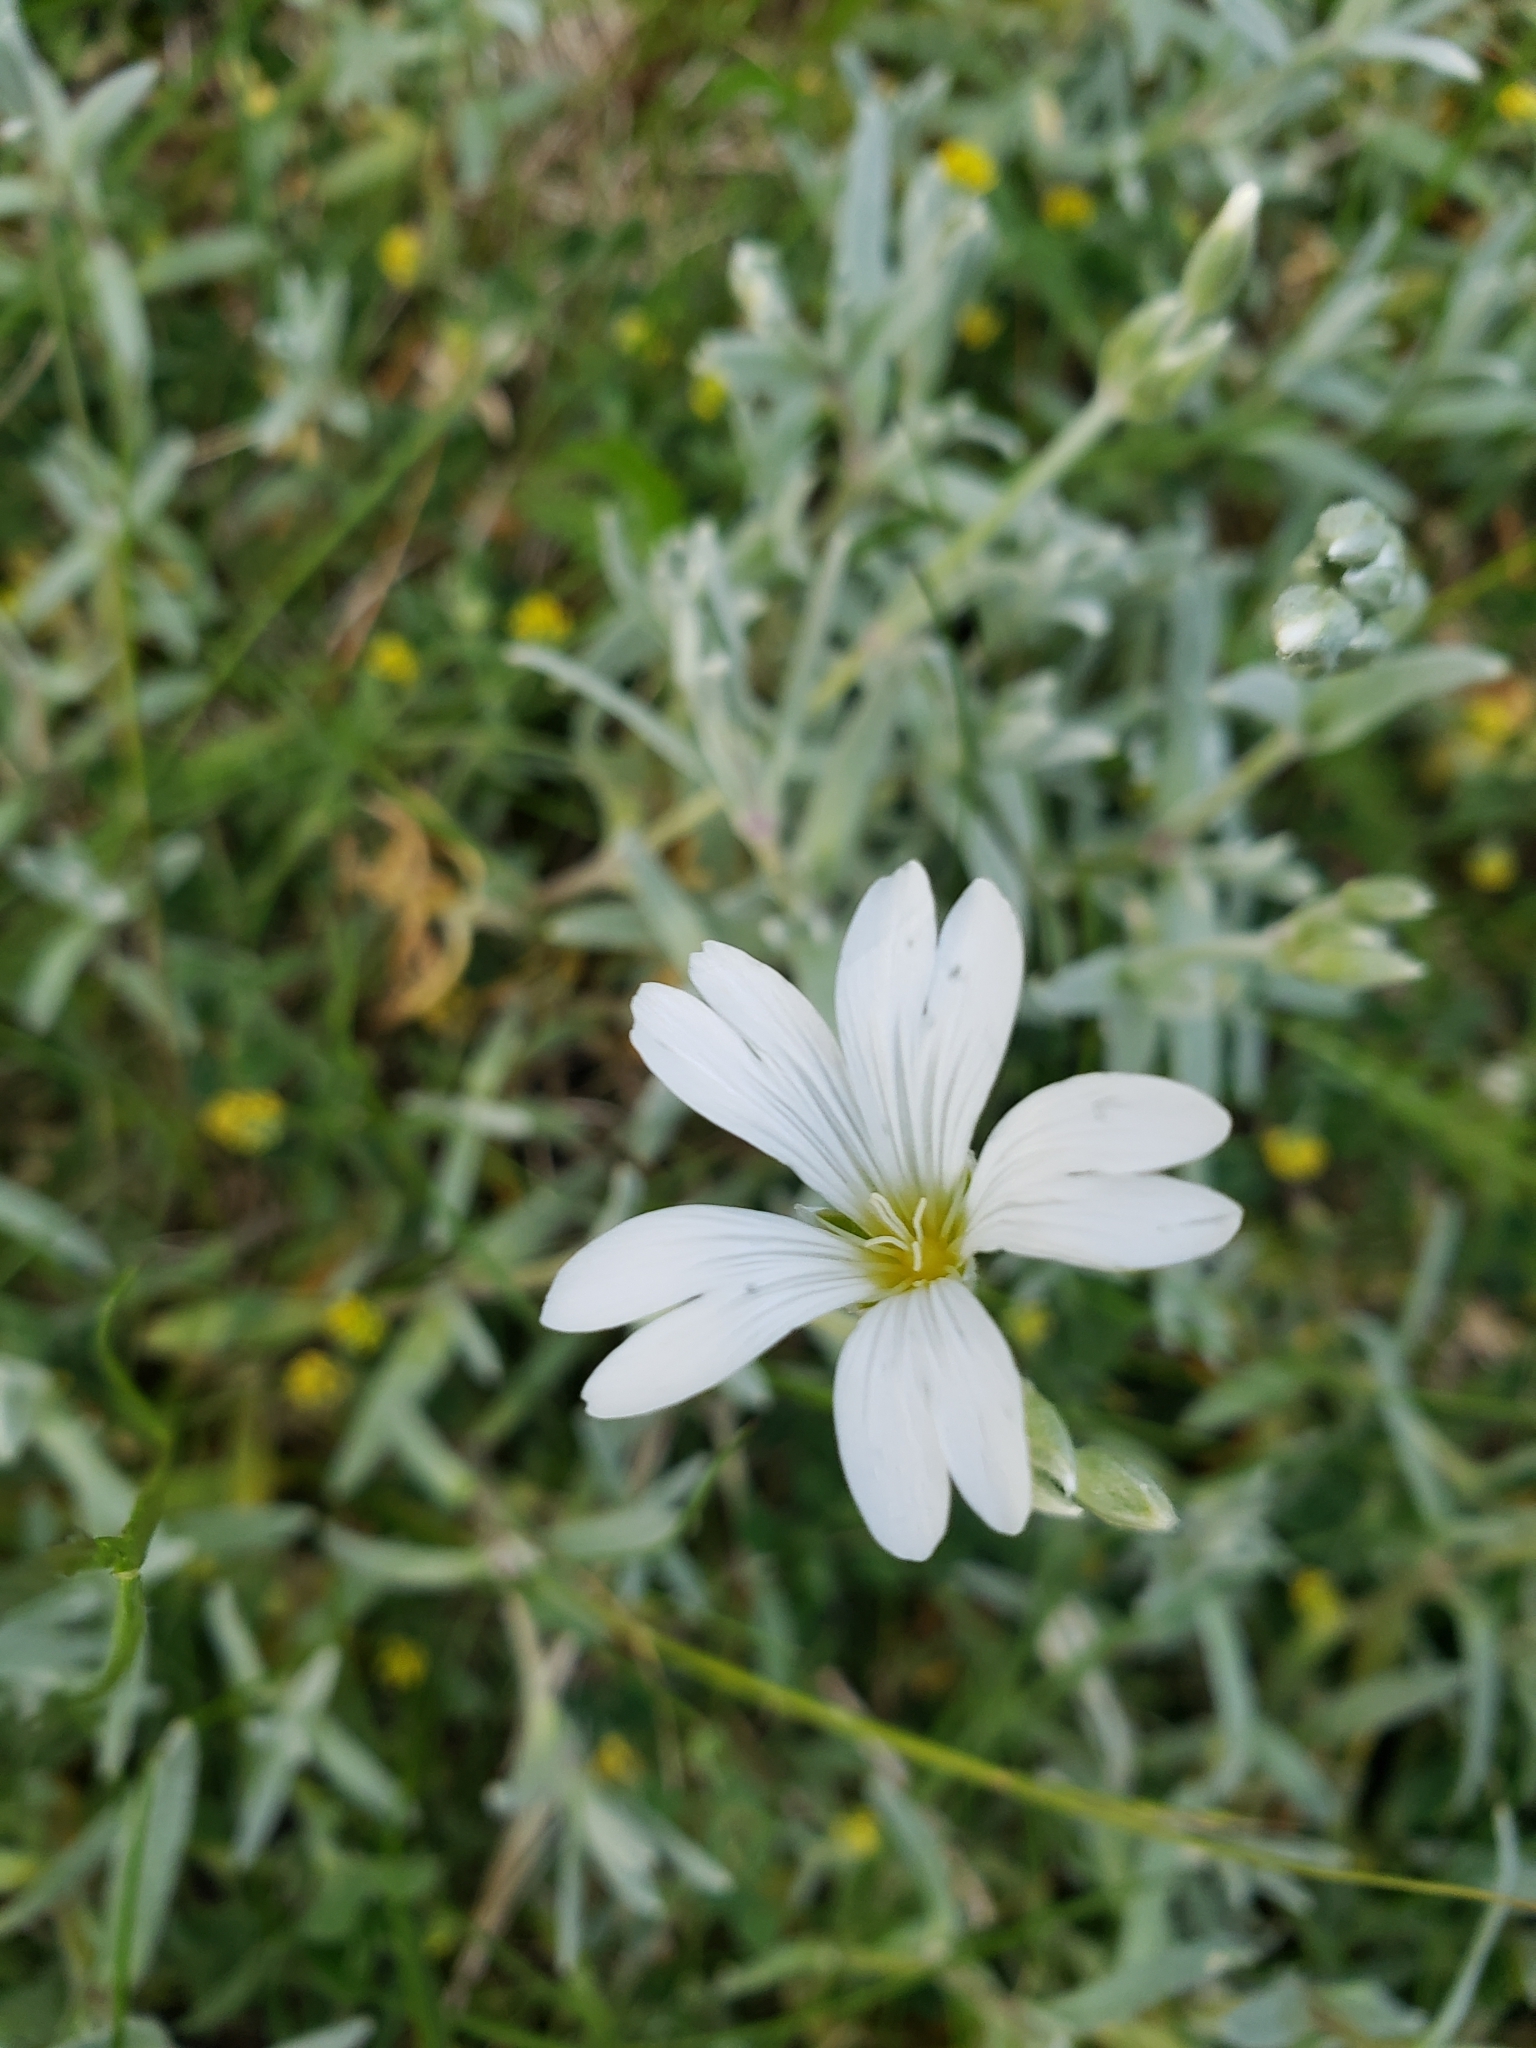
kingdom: Plantae
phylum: Tracheophyta
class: Magnoliopsida
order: Caryophyllales
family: Caryophyllaceae
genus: Cerastium
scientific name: Cerastium tomentosum
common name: Snow-in-summer
